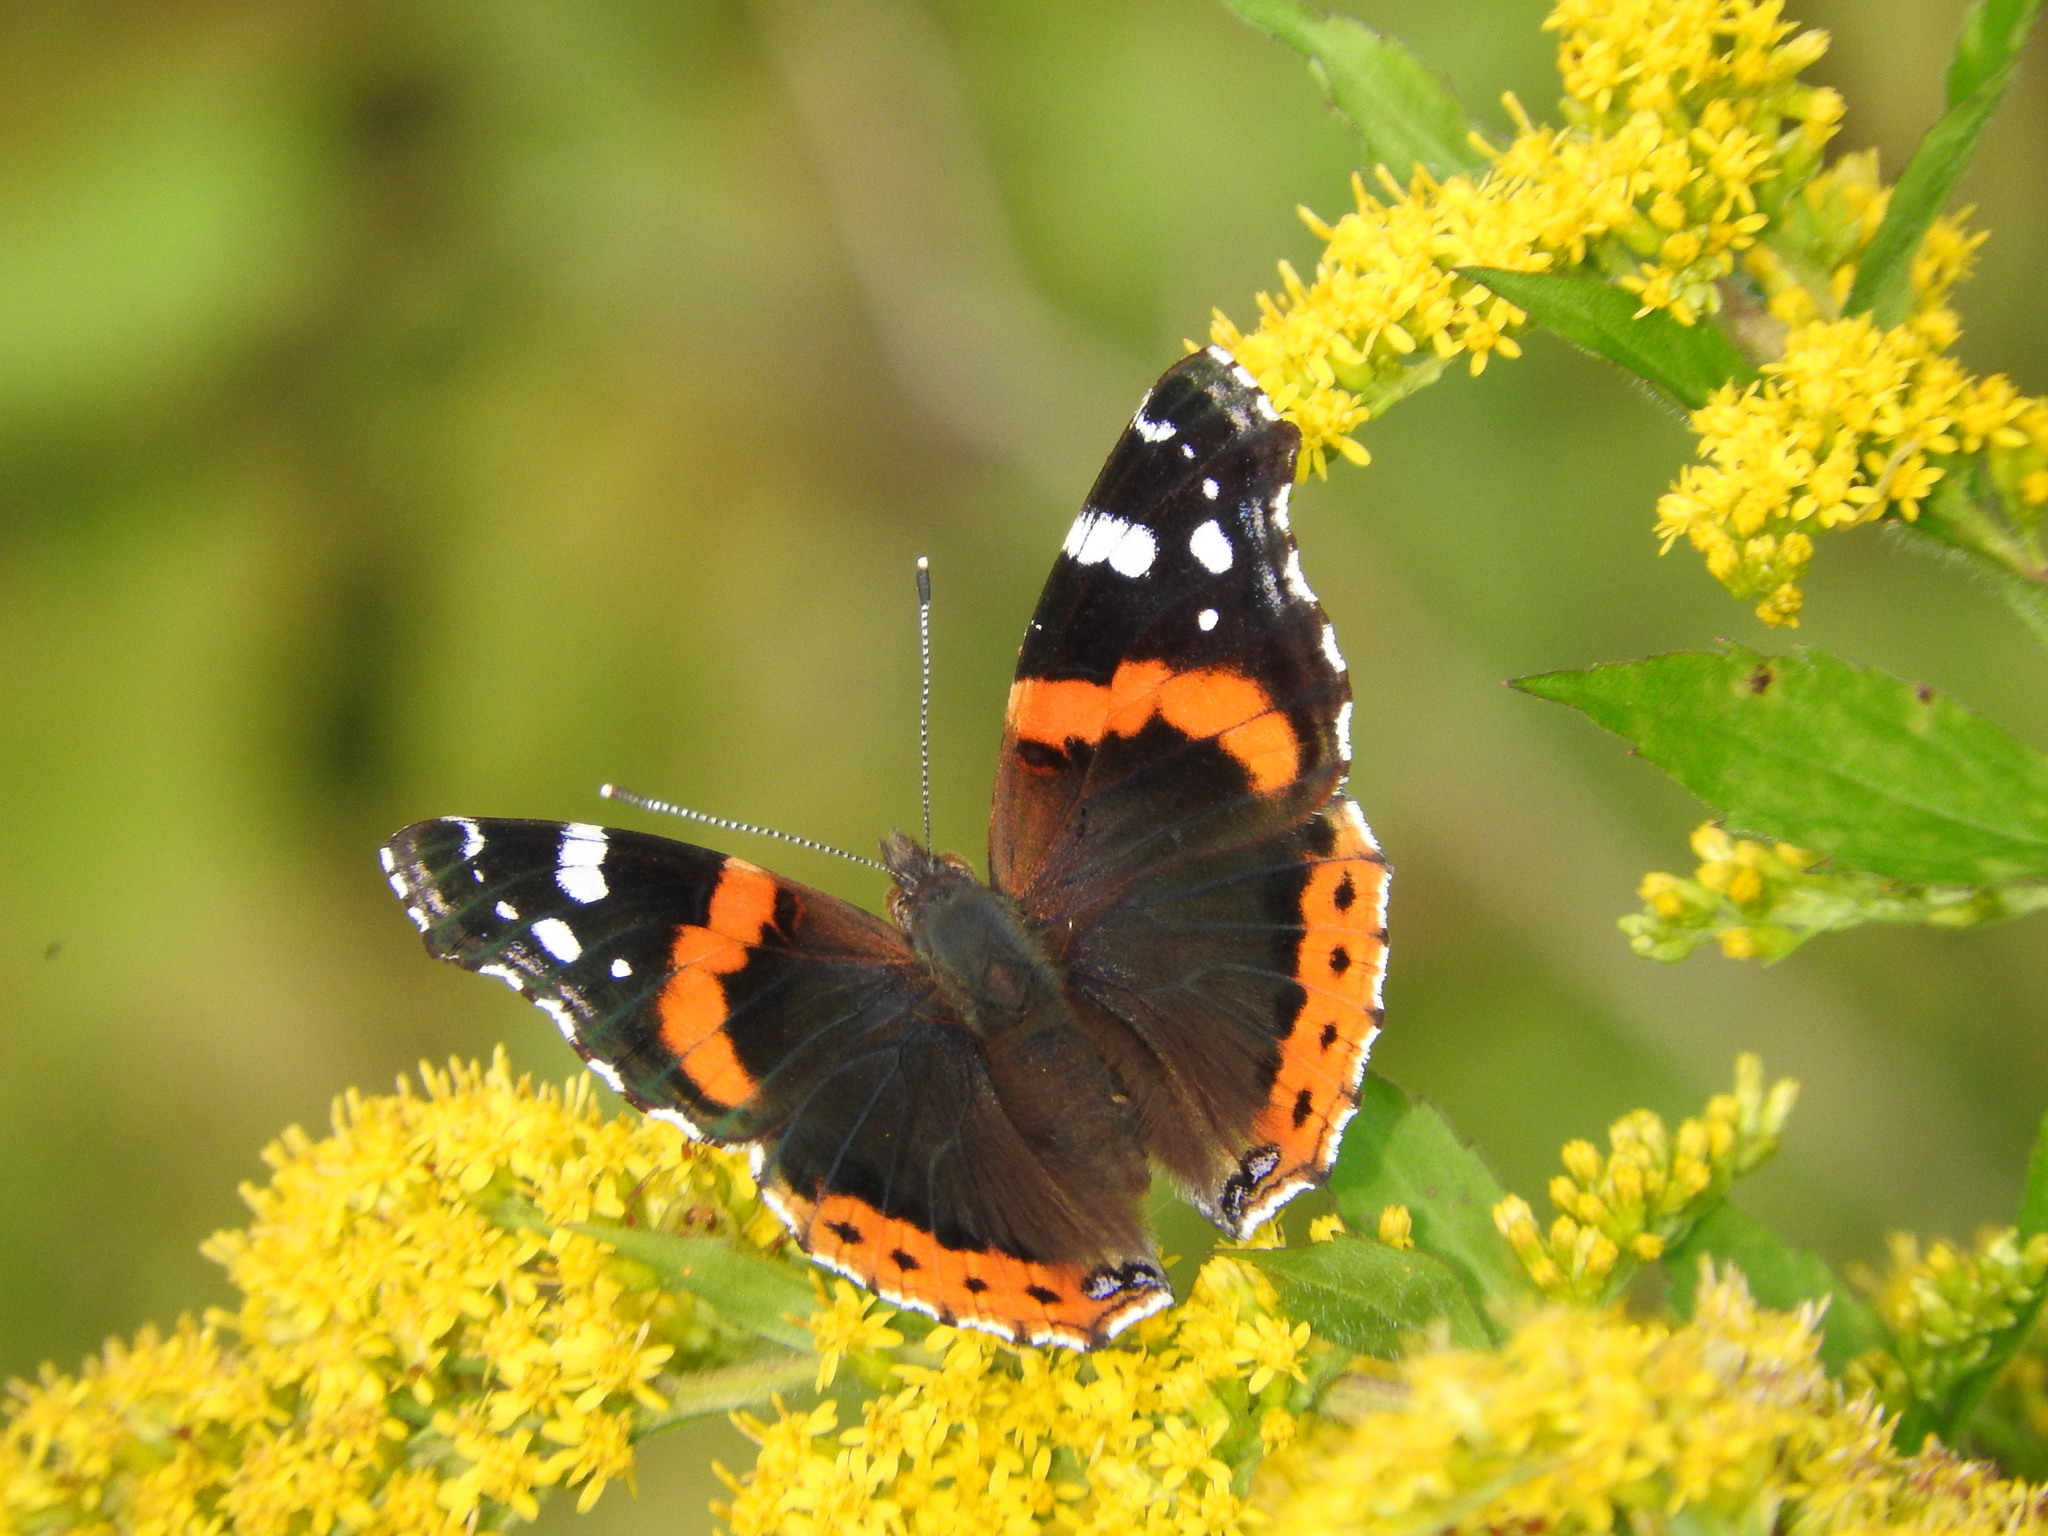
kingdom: Animalia
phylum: Arthropoda
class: Insecta
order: Lepidoptera
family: Nymphalidae
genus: Vanessa
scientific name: Vanessa atalanta
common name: Red admiral
